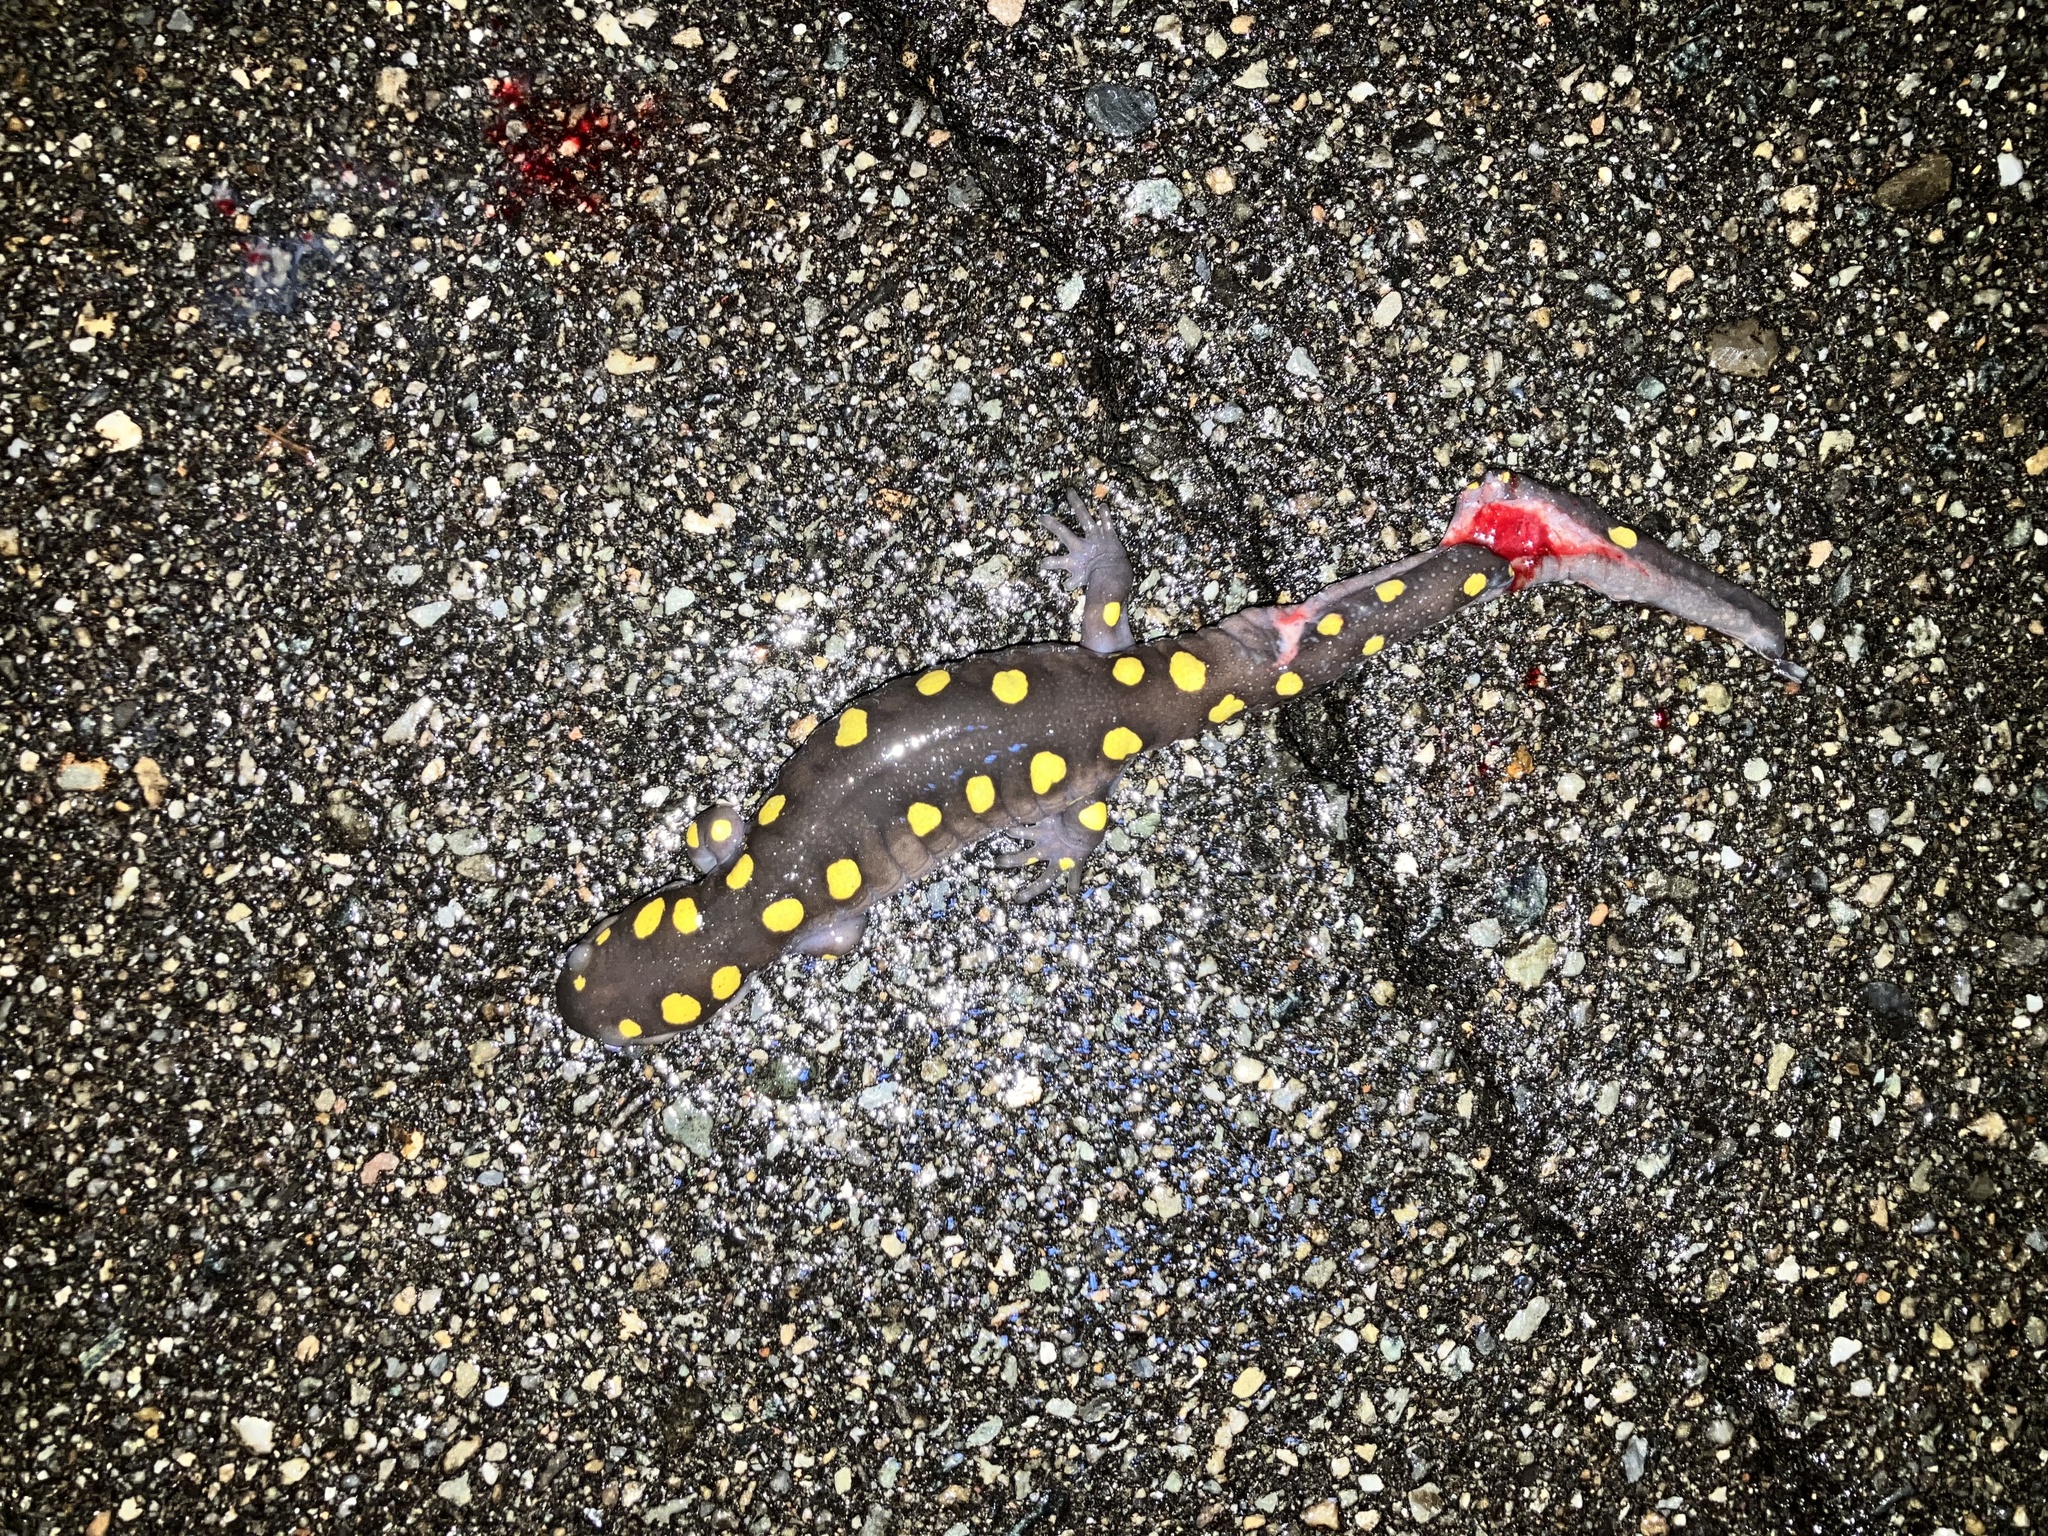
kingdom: Animalia
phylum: Chordata
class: Amphibia
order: Caudata
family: Ambystomatidae
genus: Ambystoma
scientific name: Ambystoma maculatum
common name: Spotted salamander
